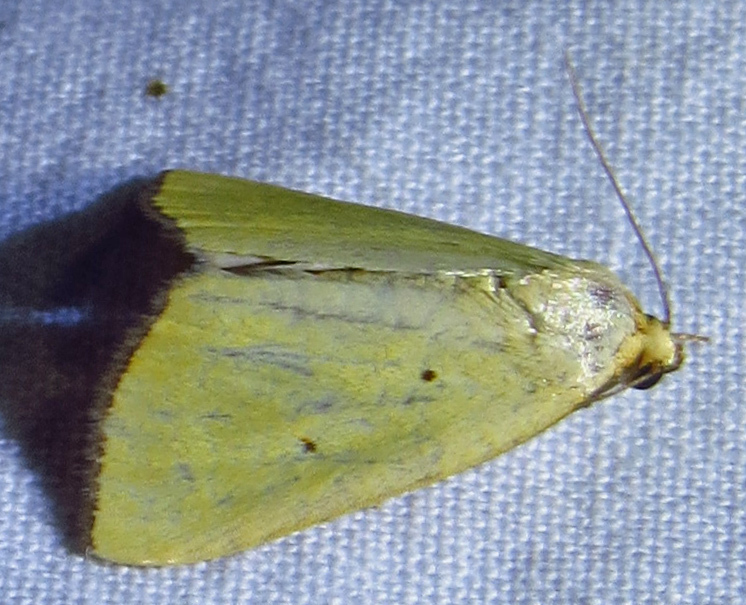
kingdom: Animalia
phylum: Arthropoda
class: Insecta
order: Lepidoptera
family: Noctuidae
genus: Marimatha
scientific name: Marimatha nigrofimbria
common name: Black-bordered lemon moth
